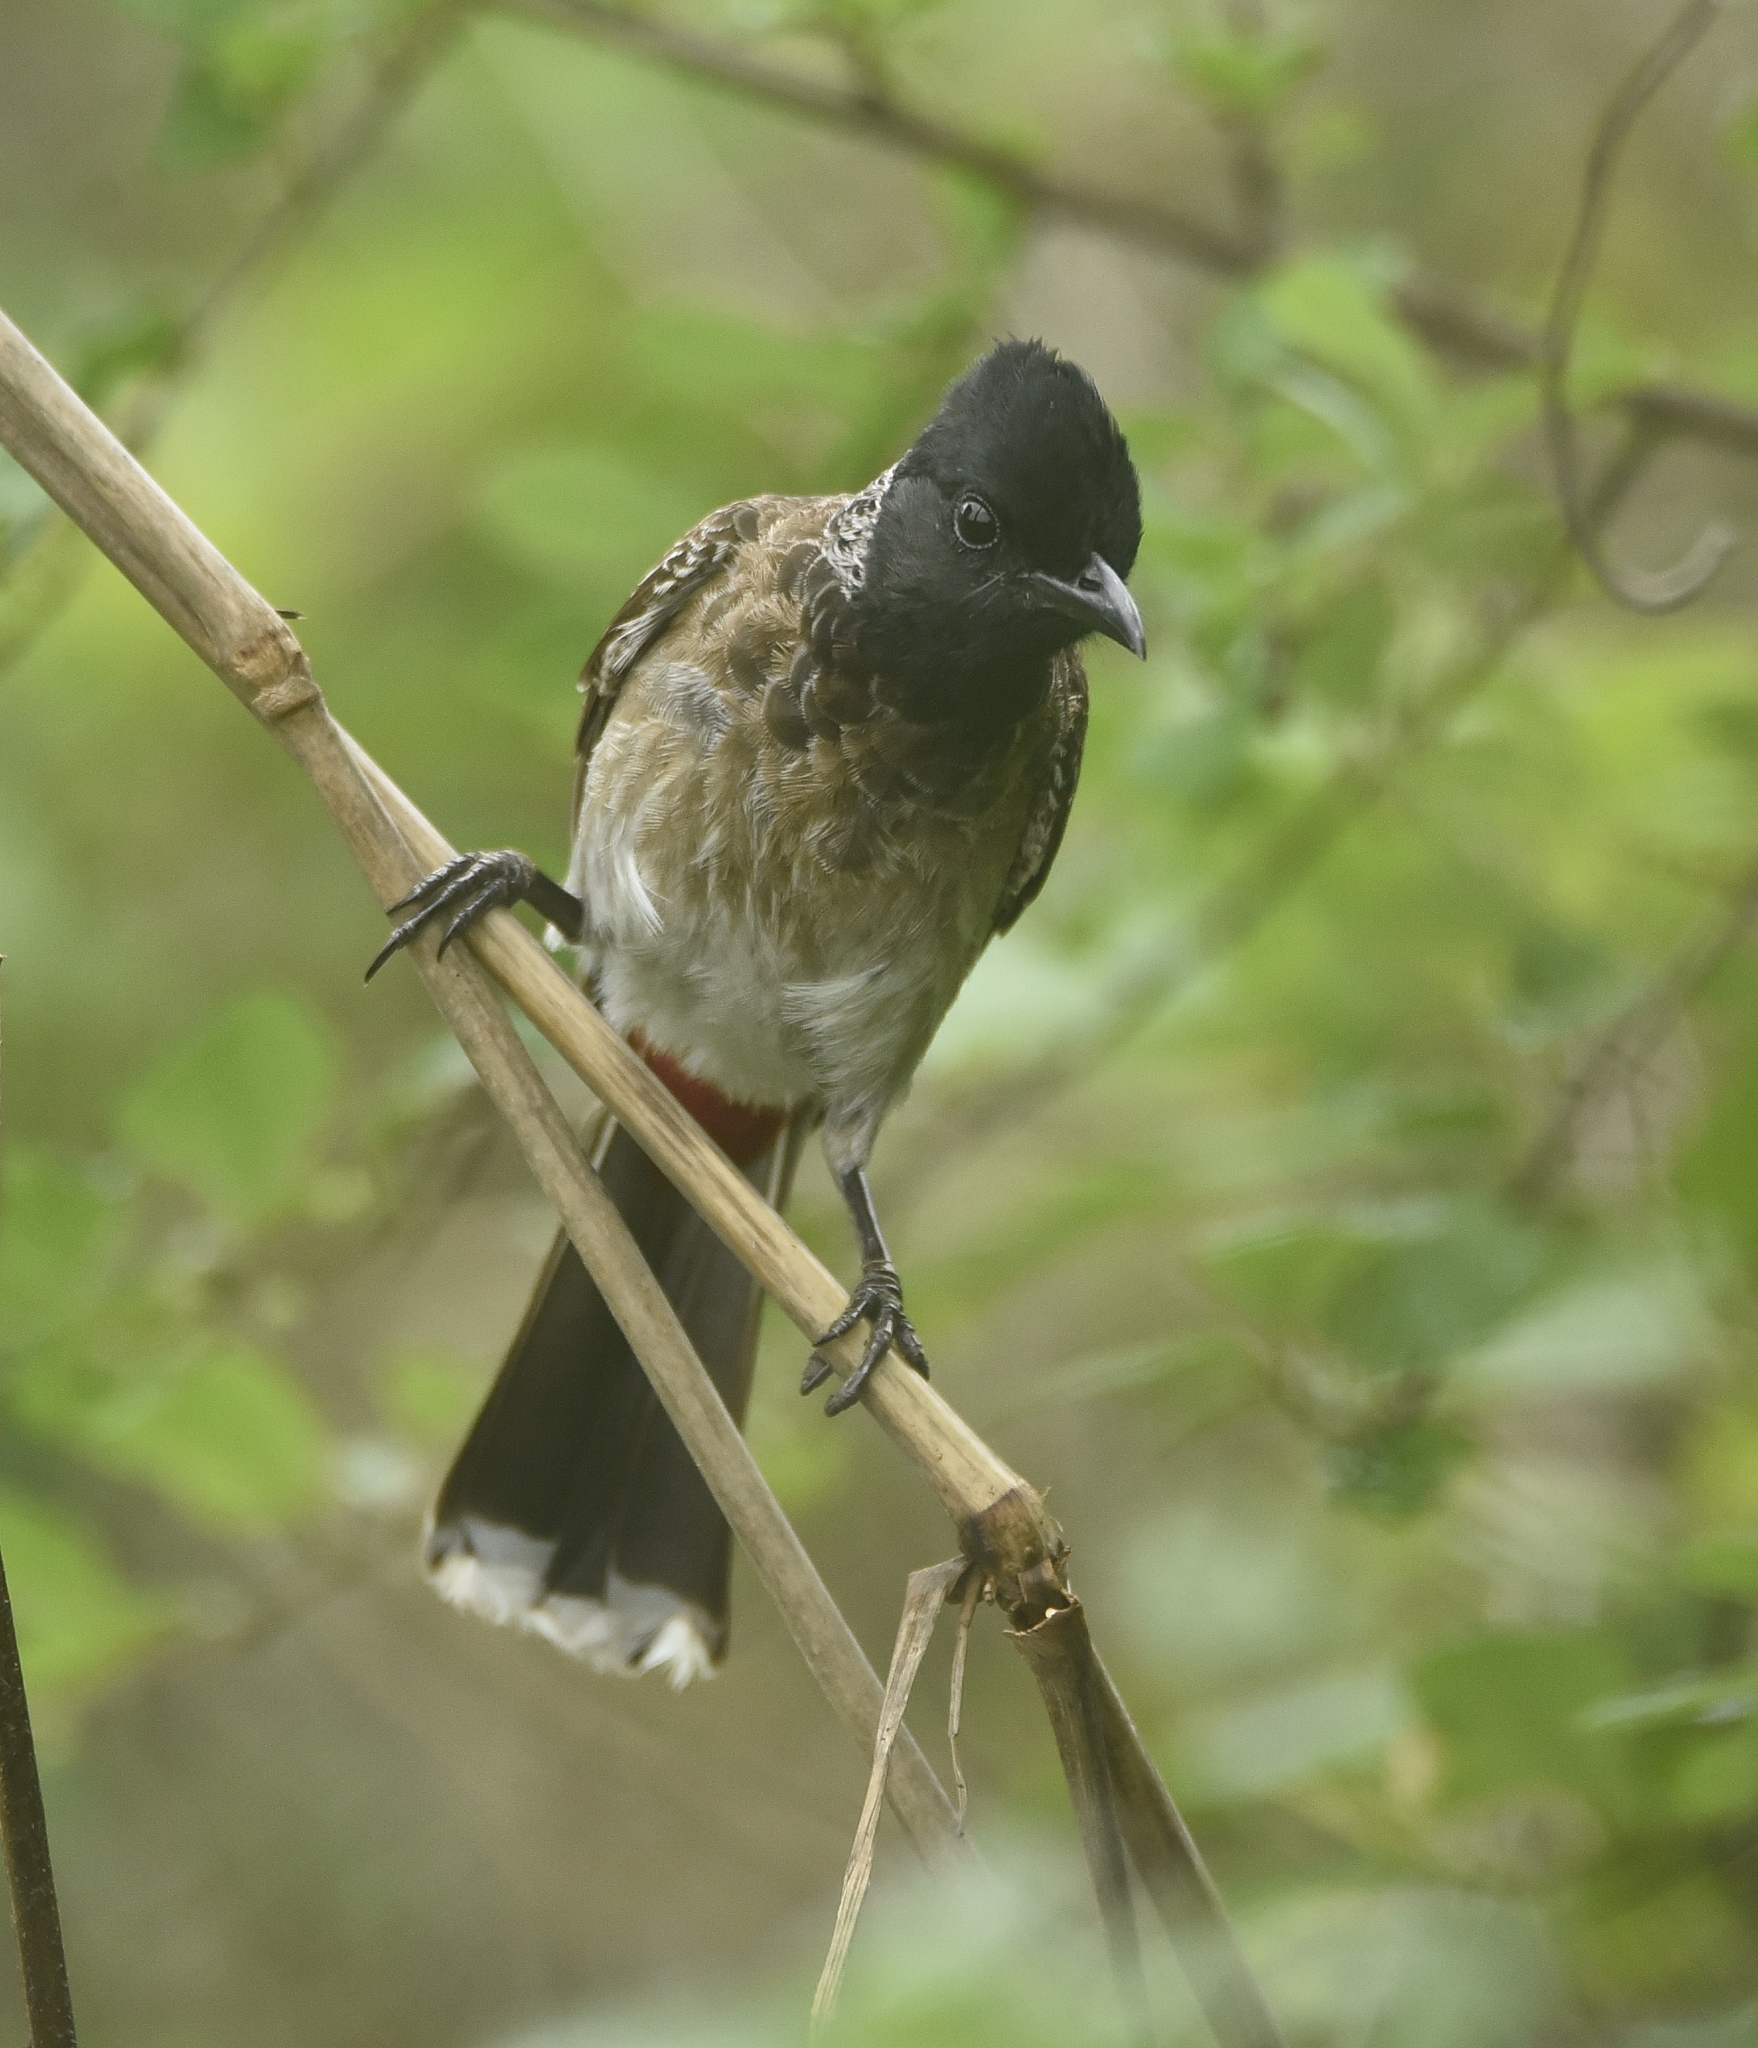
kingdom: Animalia
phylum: Chordata
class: Aves
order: Passeriformes
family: Pycnonotidae
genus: Pycnonotus
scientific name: Pycnonotus cafer
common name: Red-vented bulbul
